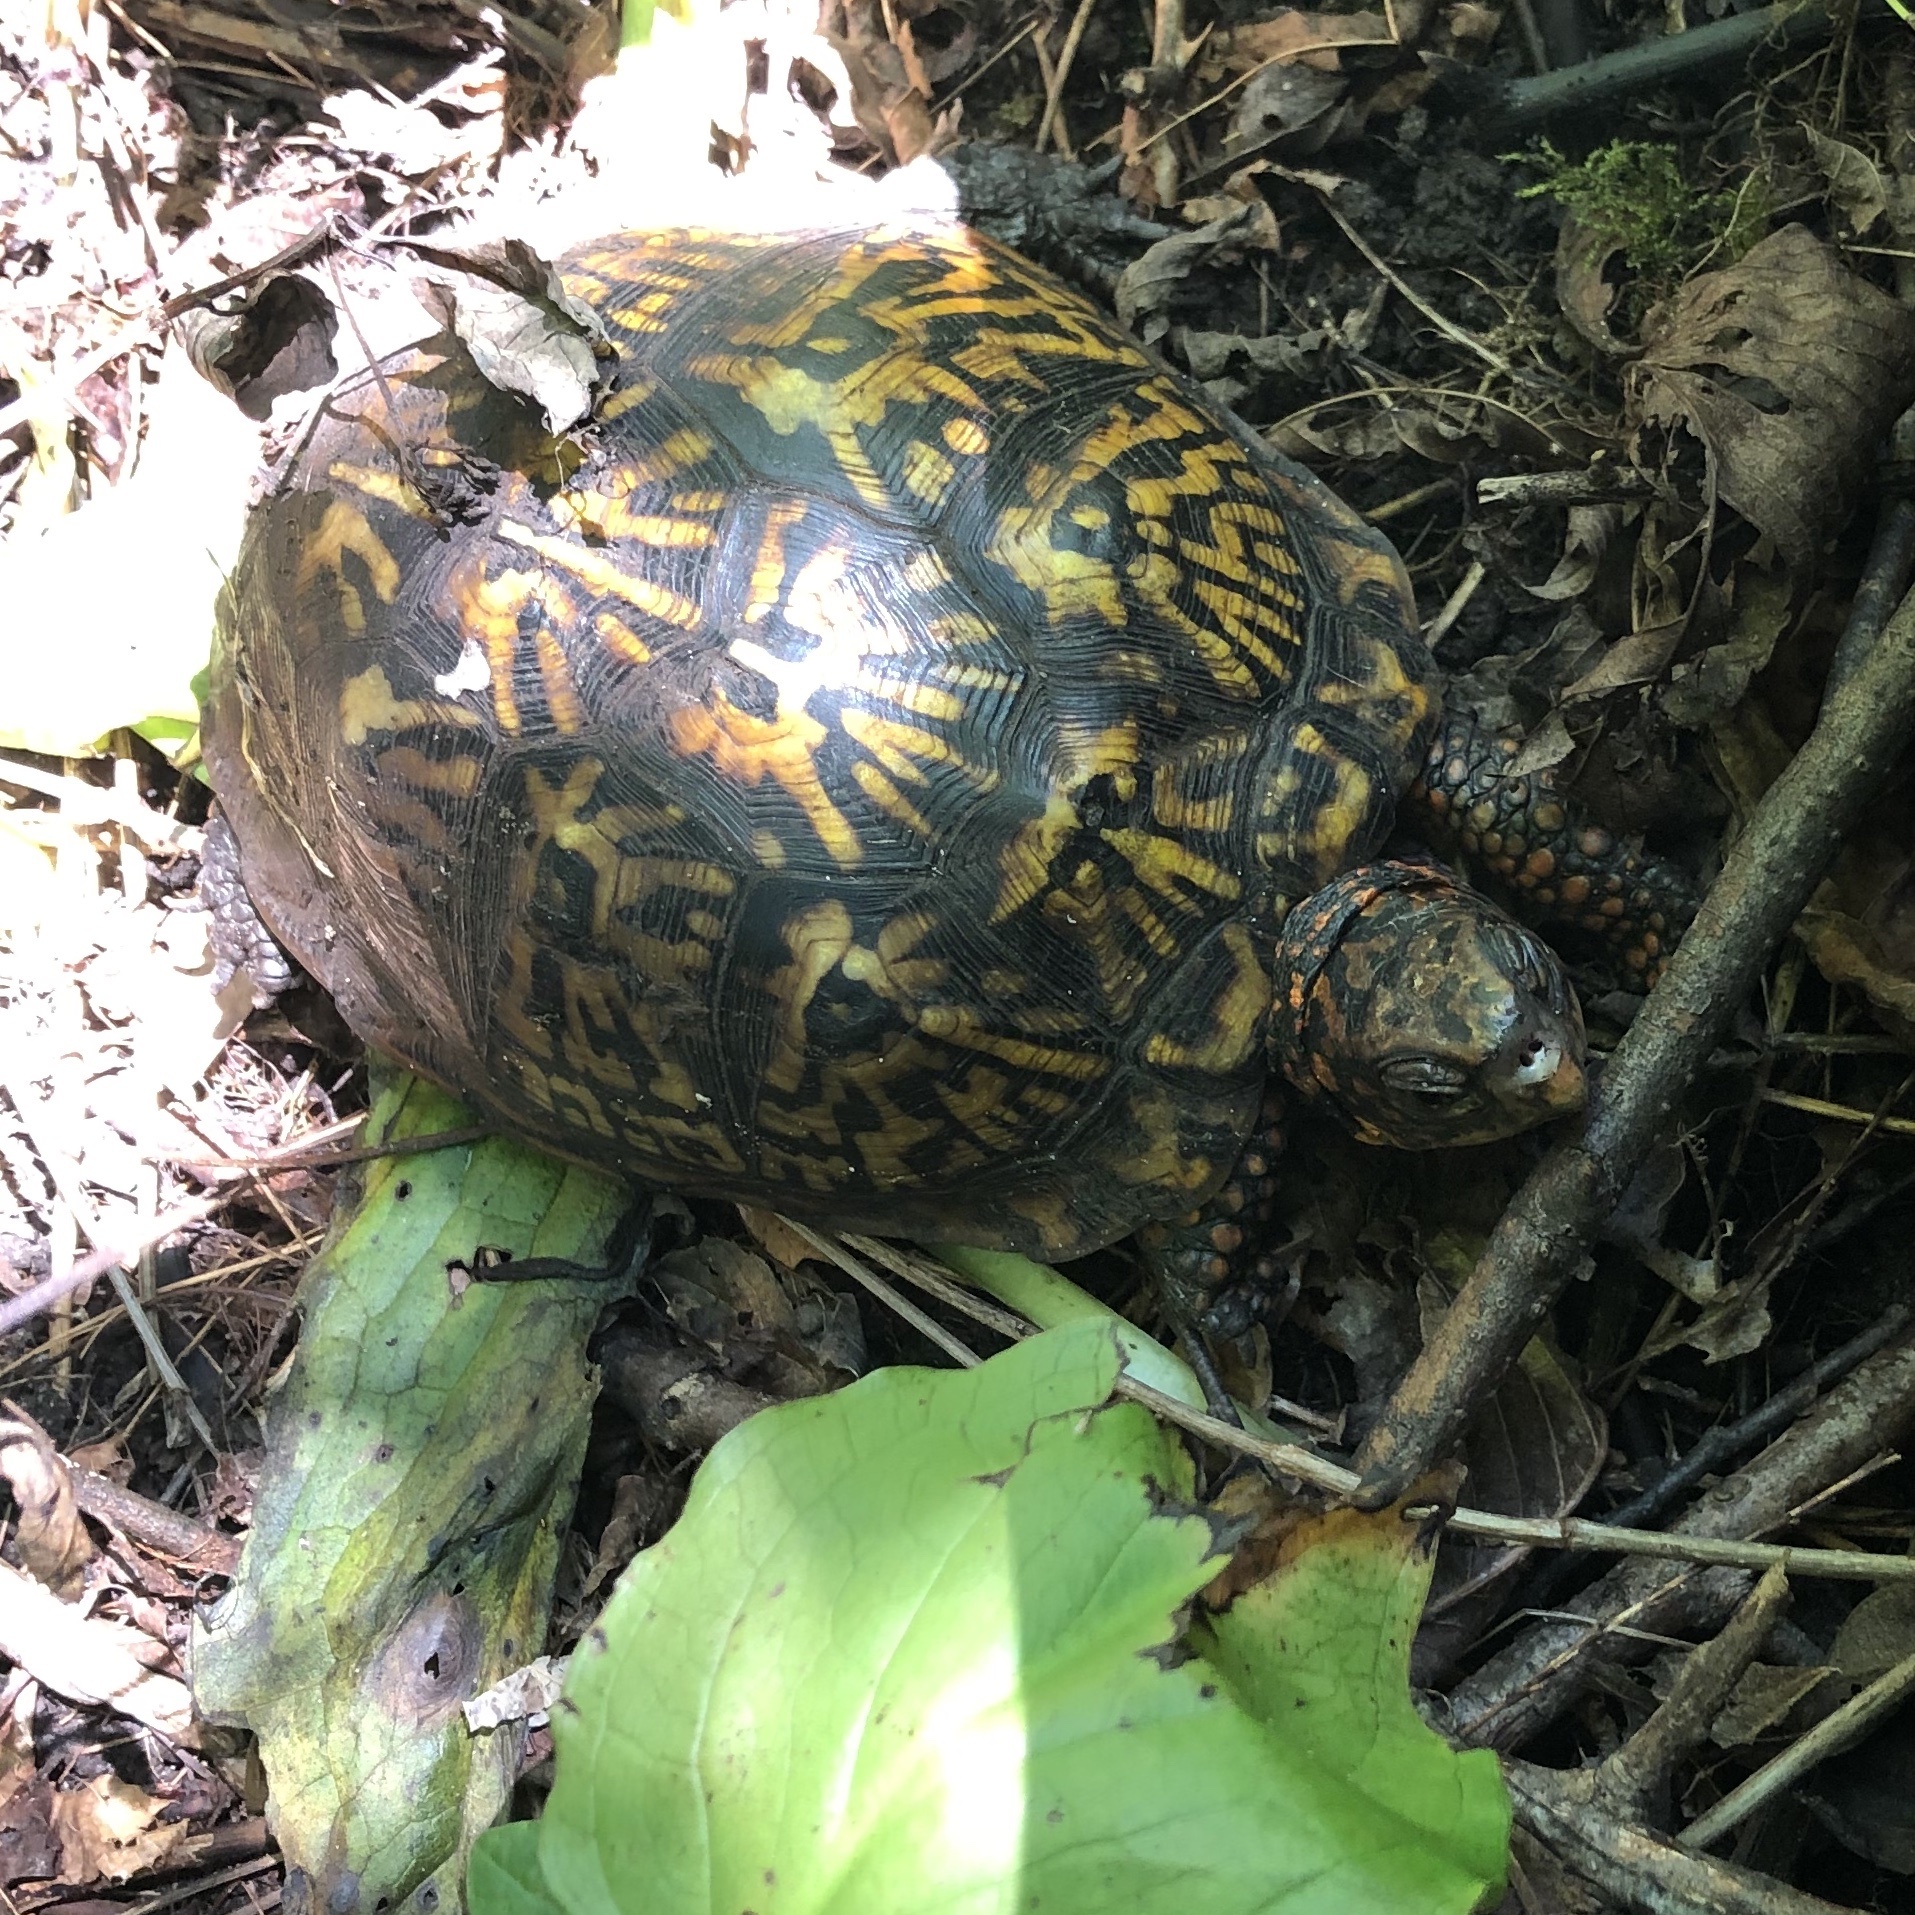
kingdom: Animalia
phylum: Chordata
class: Testudines
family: Emydidae
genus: Terrapene
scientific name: Terrapene carolina
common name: Common box turtle
